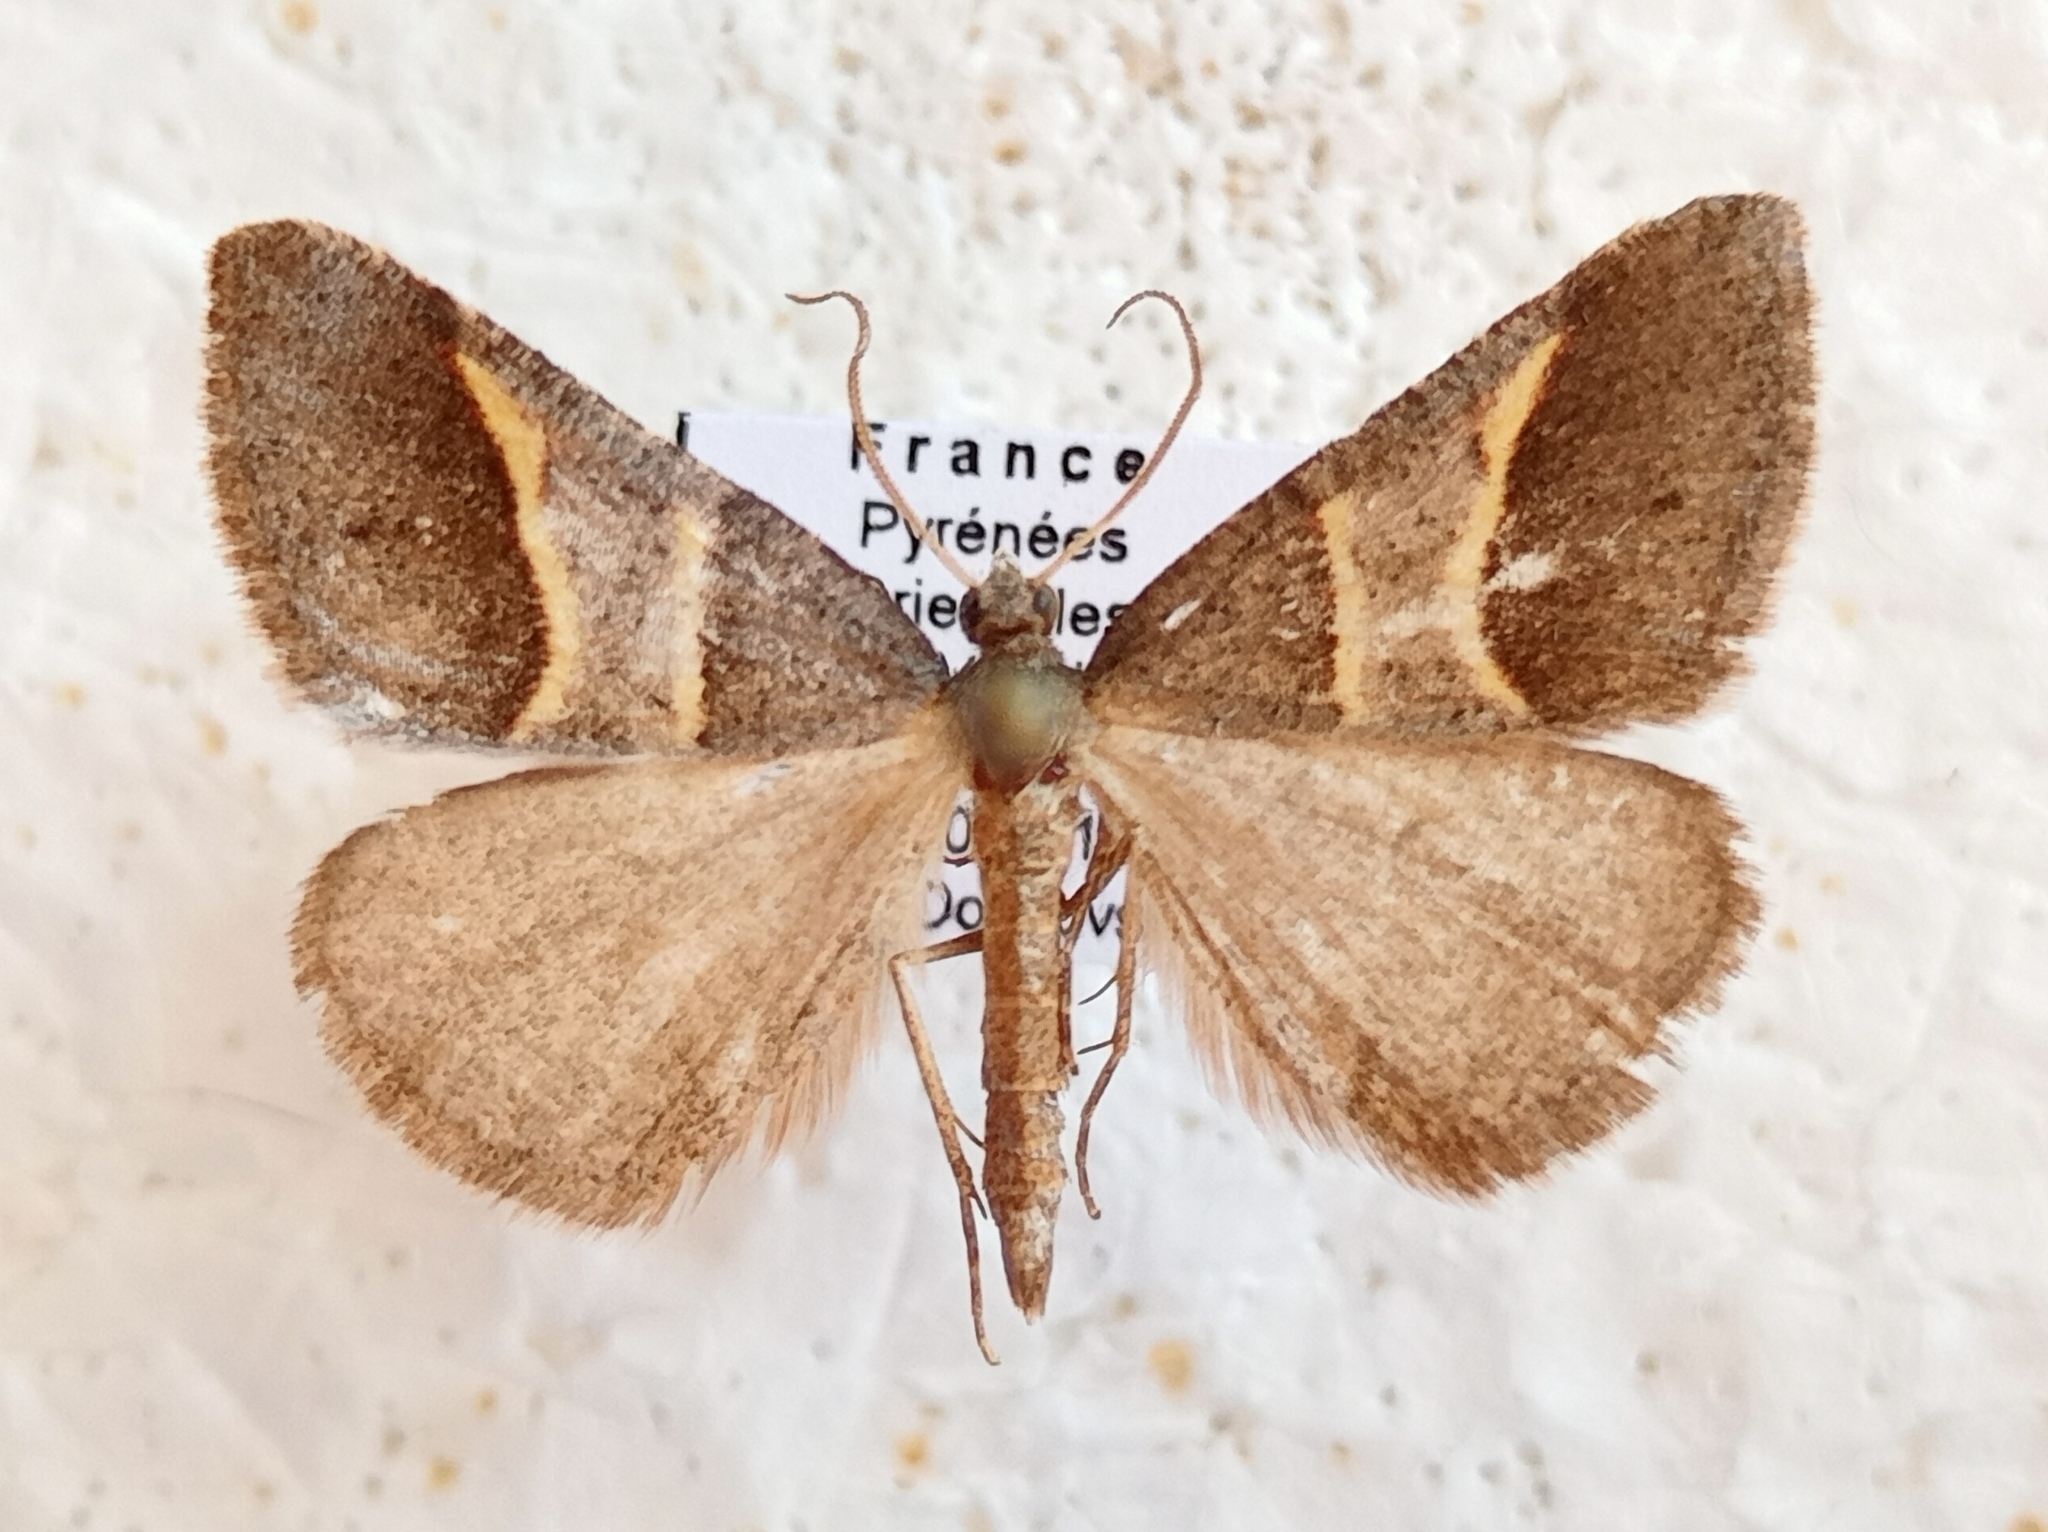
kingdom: Animalia
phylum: Arthropoda
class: Insecta
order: Lepidoptera
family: Pterophoridae
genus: Pterophorus
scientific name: Pterophorus Petrophora convergata
